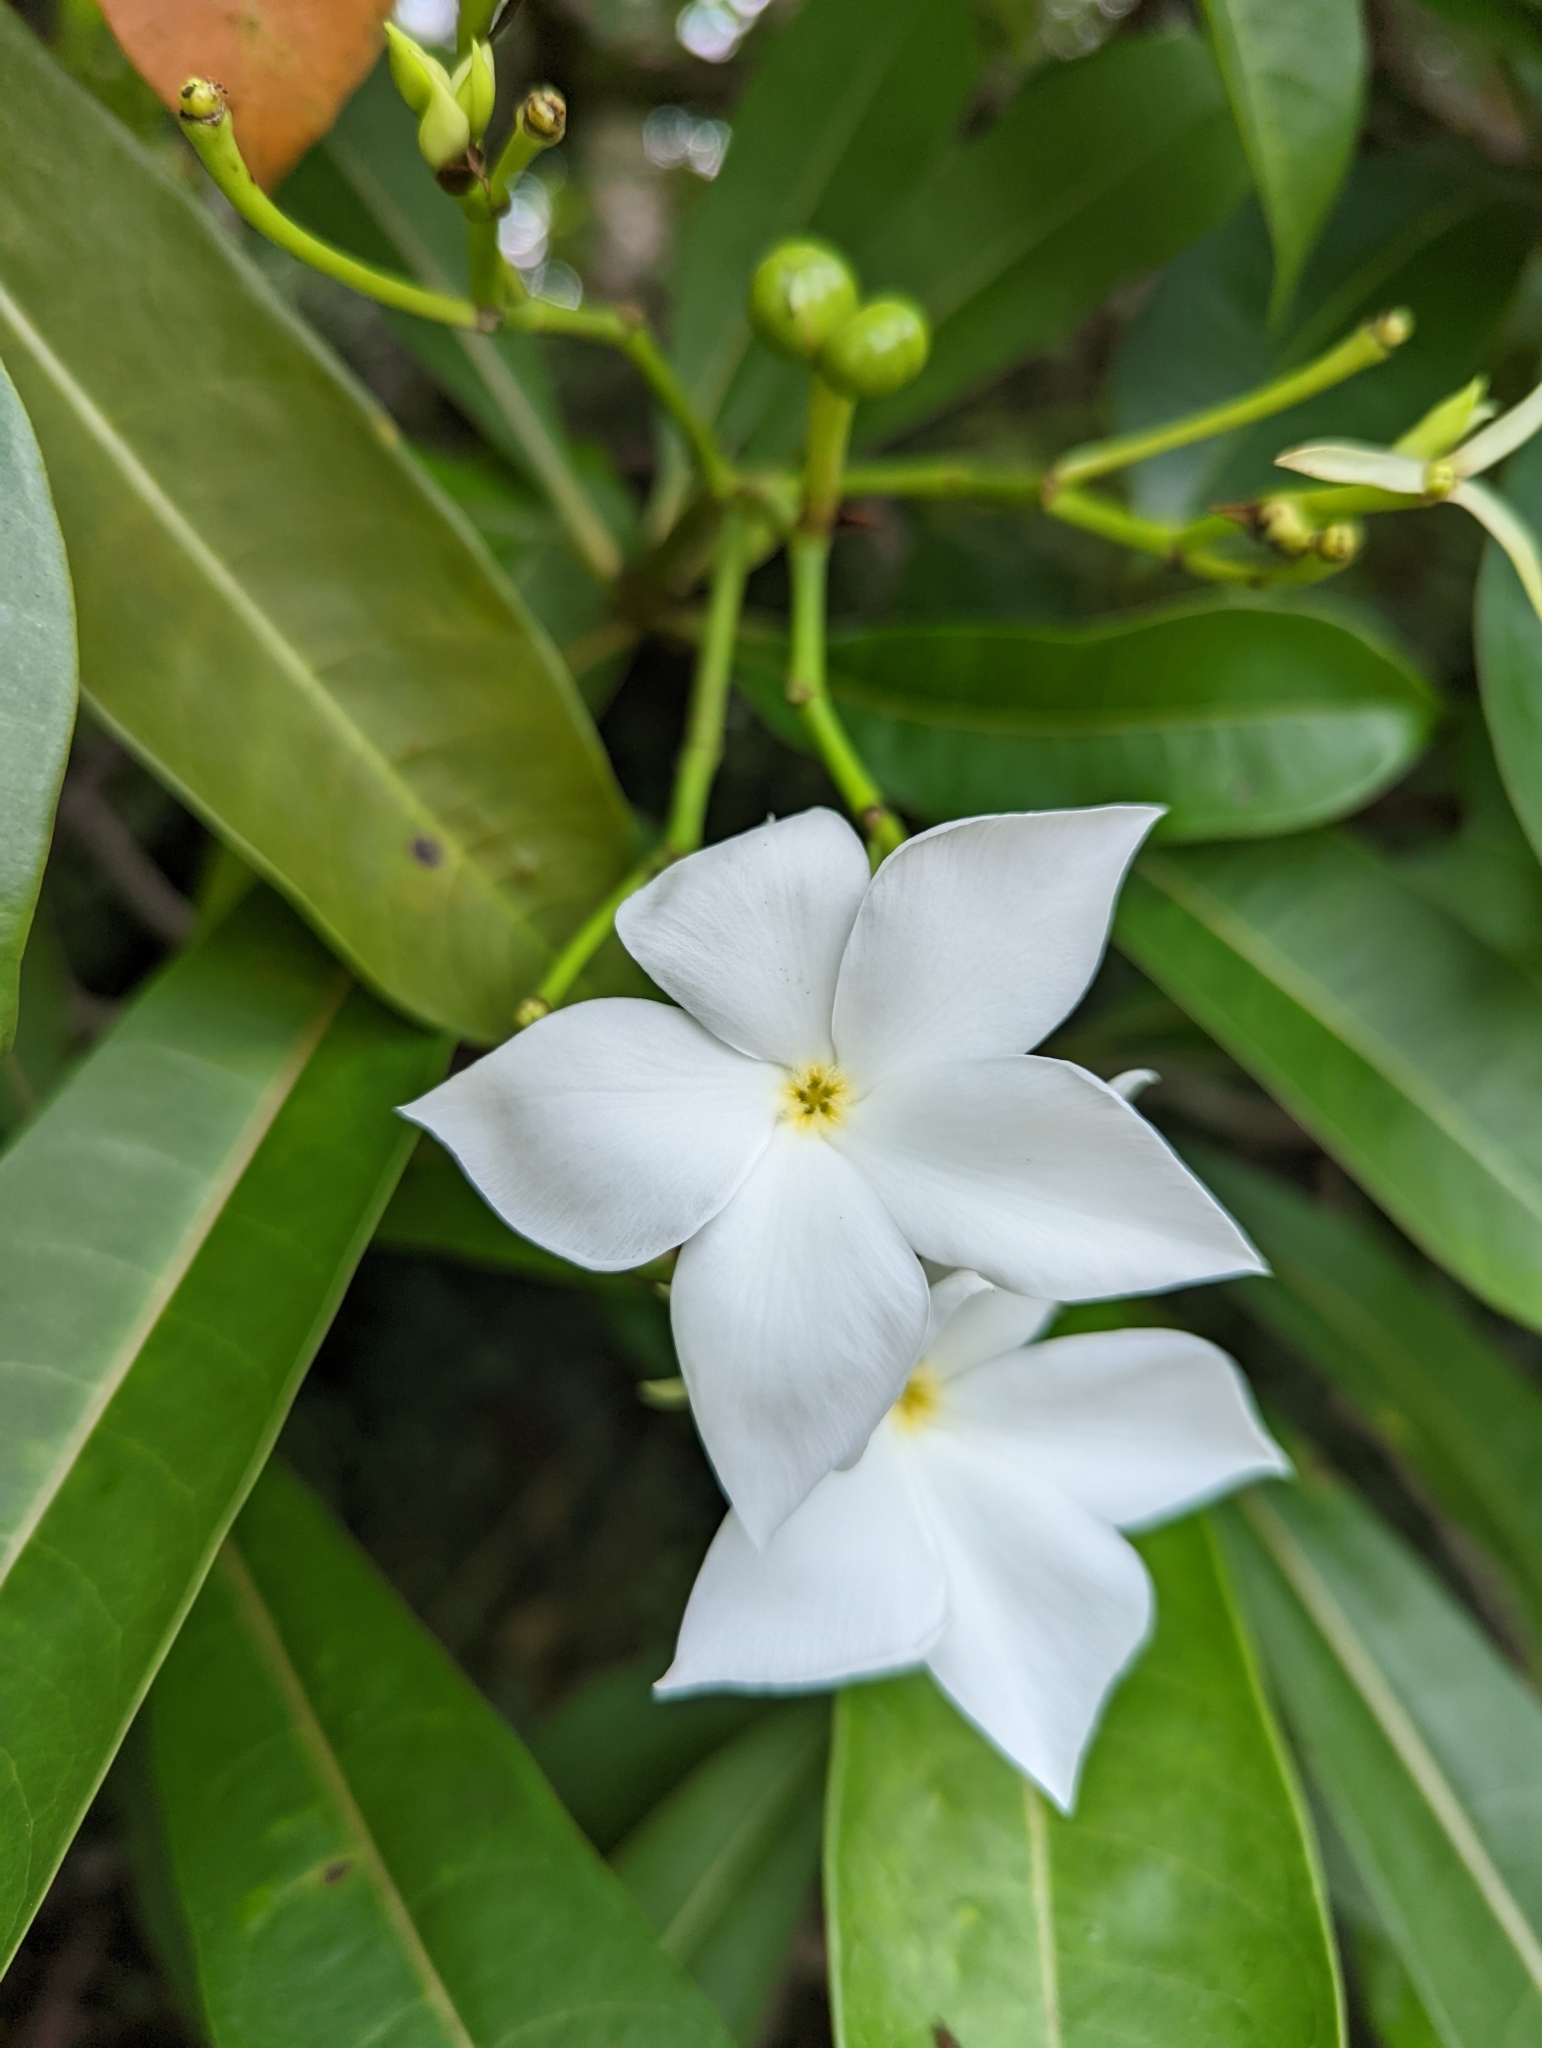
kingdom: Plantae
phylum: Tracheophyta
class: Magnoliopsida
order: Gentianales
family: Apocynaceae
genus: Cerbera
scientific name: Cerbera odollam
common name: Pong-pong
